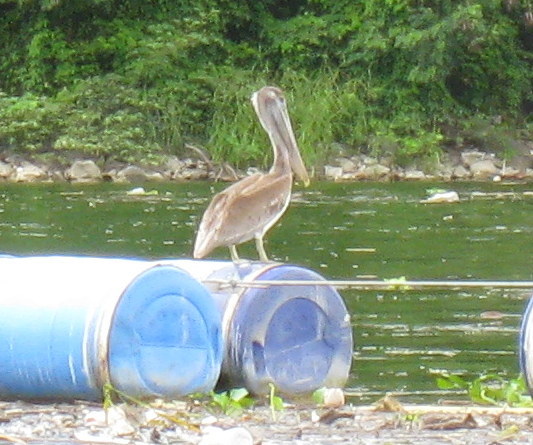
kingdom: Animalia
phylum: Chordata
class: Aves
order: Pelecaniformes
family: Pelecanidae
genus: Pelecanus
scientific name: Pelecanus occidentalis
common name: Brown pelican
